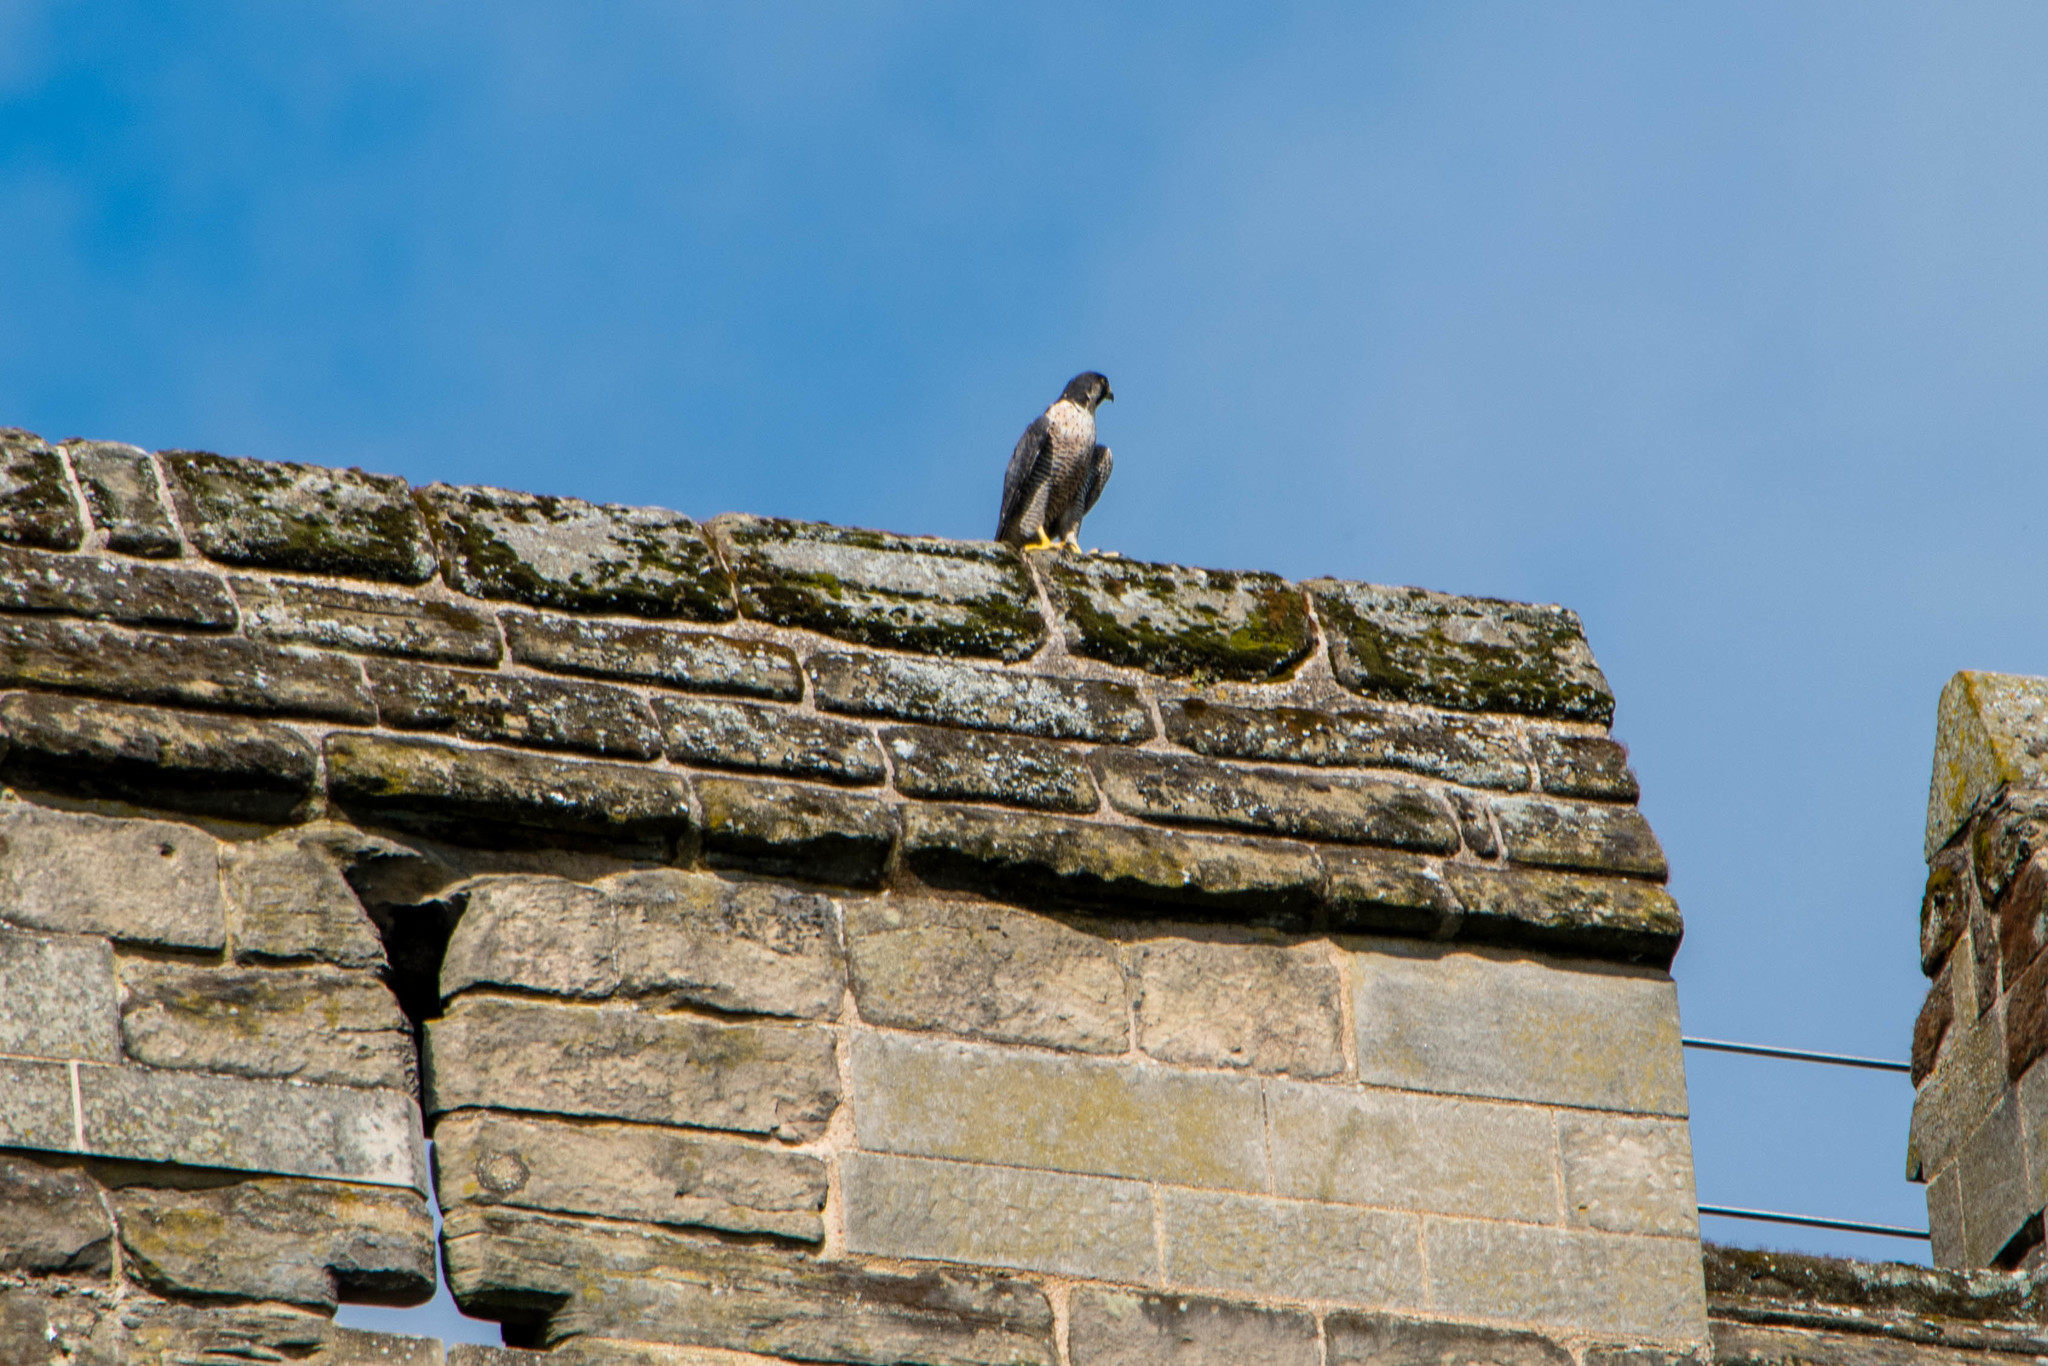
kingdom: Animalia
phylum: Chordata
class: Aves
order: Falconiformes
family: Falconidae
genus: Falco
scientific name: Falco peregrinus
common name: Peregrine falcon
